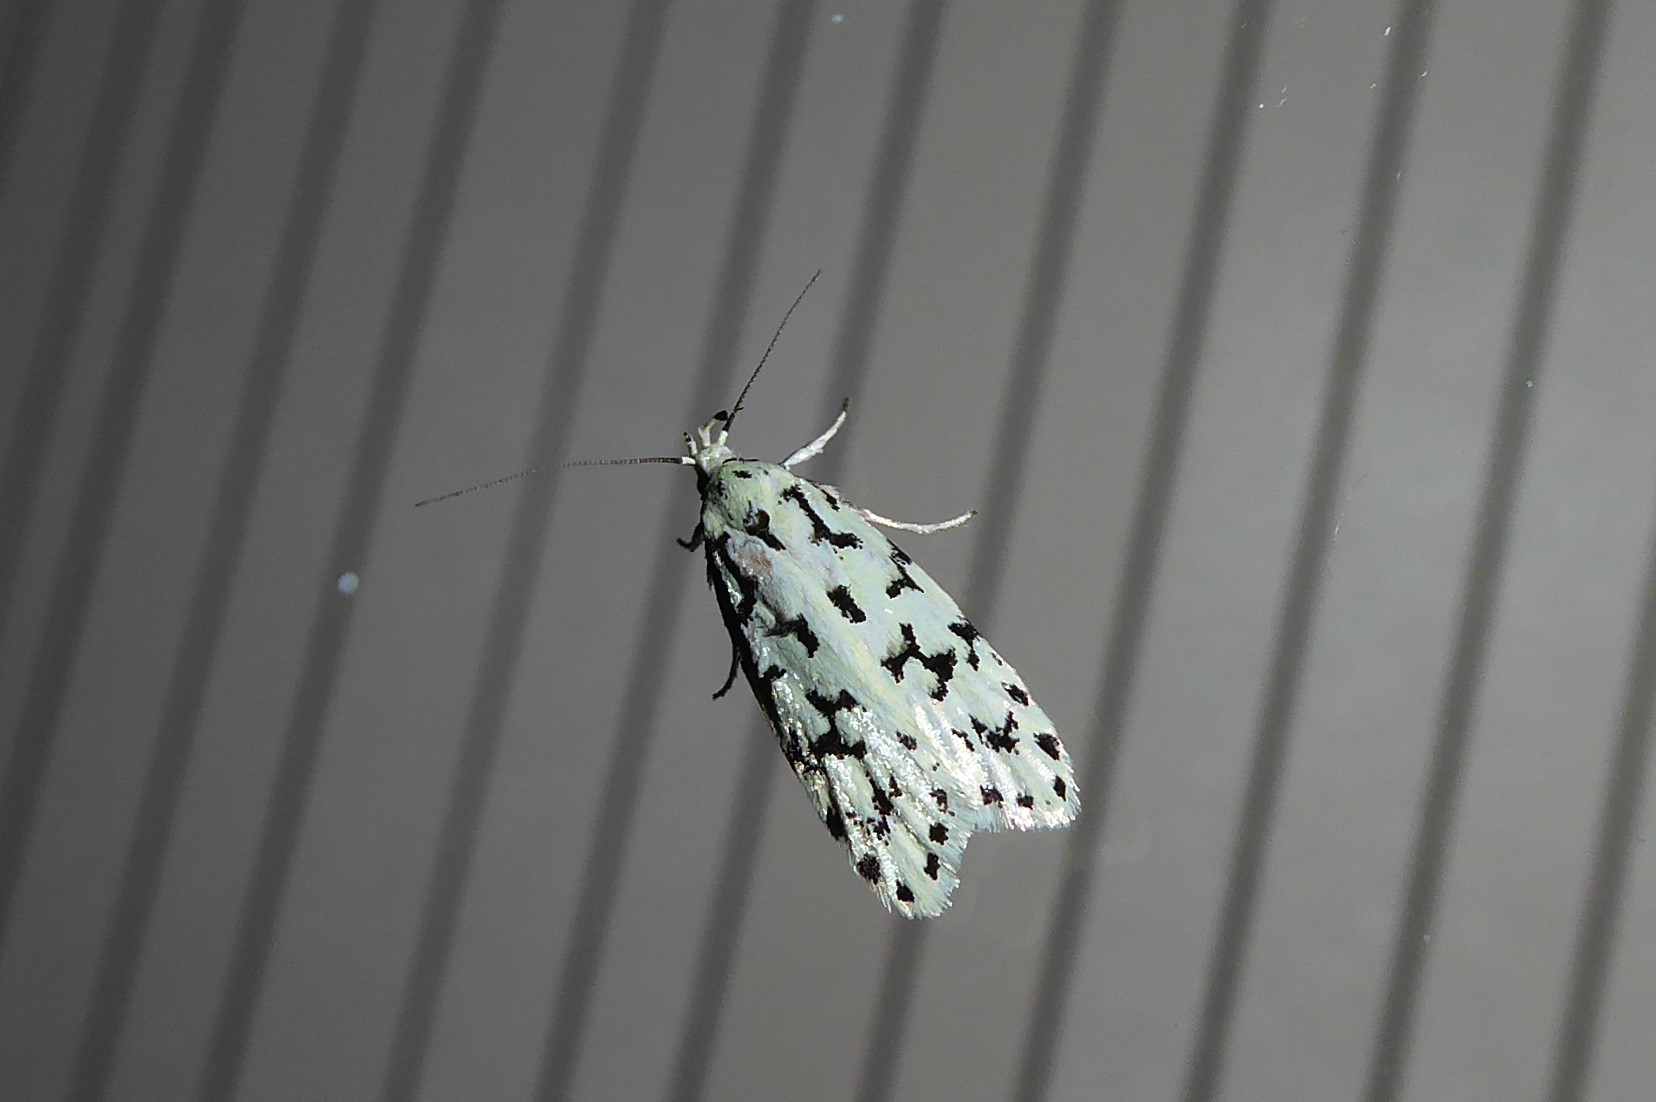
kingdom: Animalia
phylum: Arthropoda
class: Insecta
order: Lepidoptera
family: Oecophoridae
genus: Izatha
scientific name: Izatha huttoni
